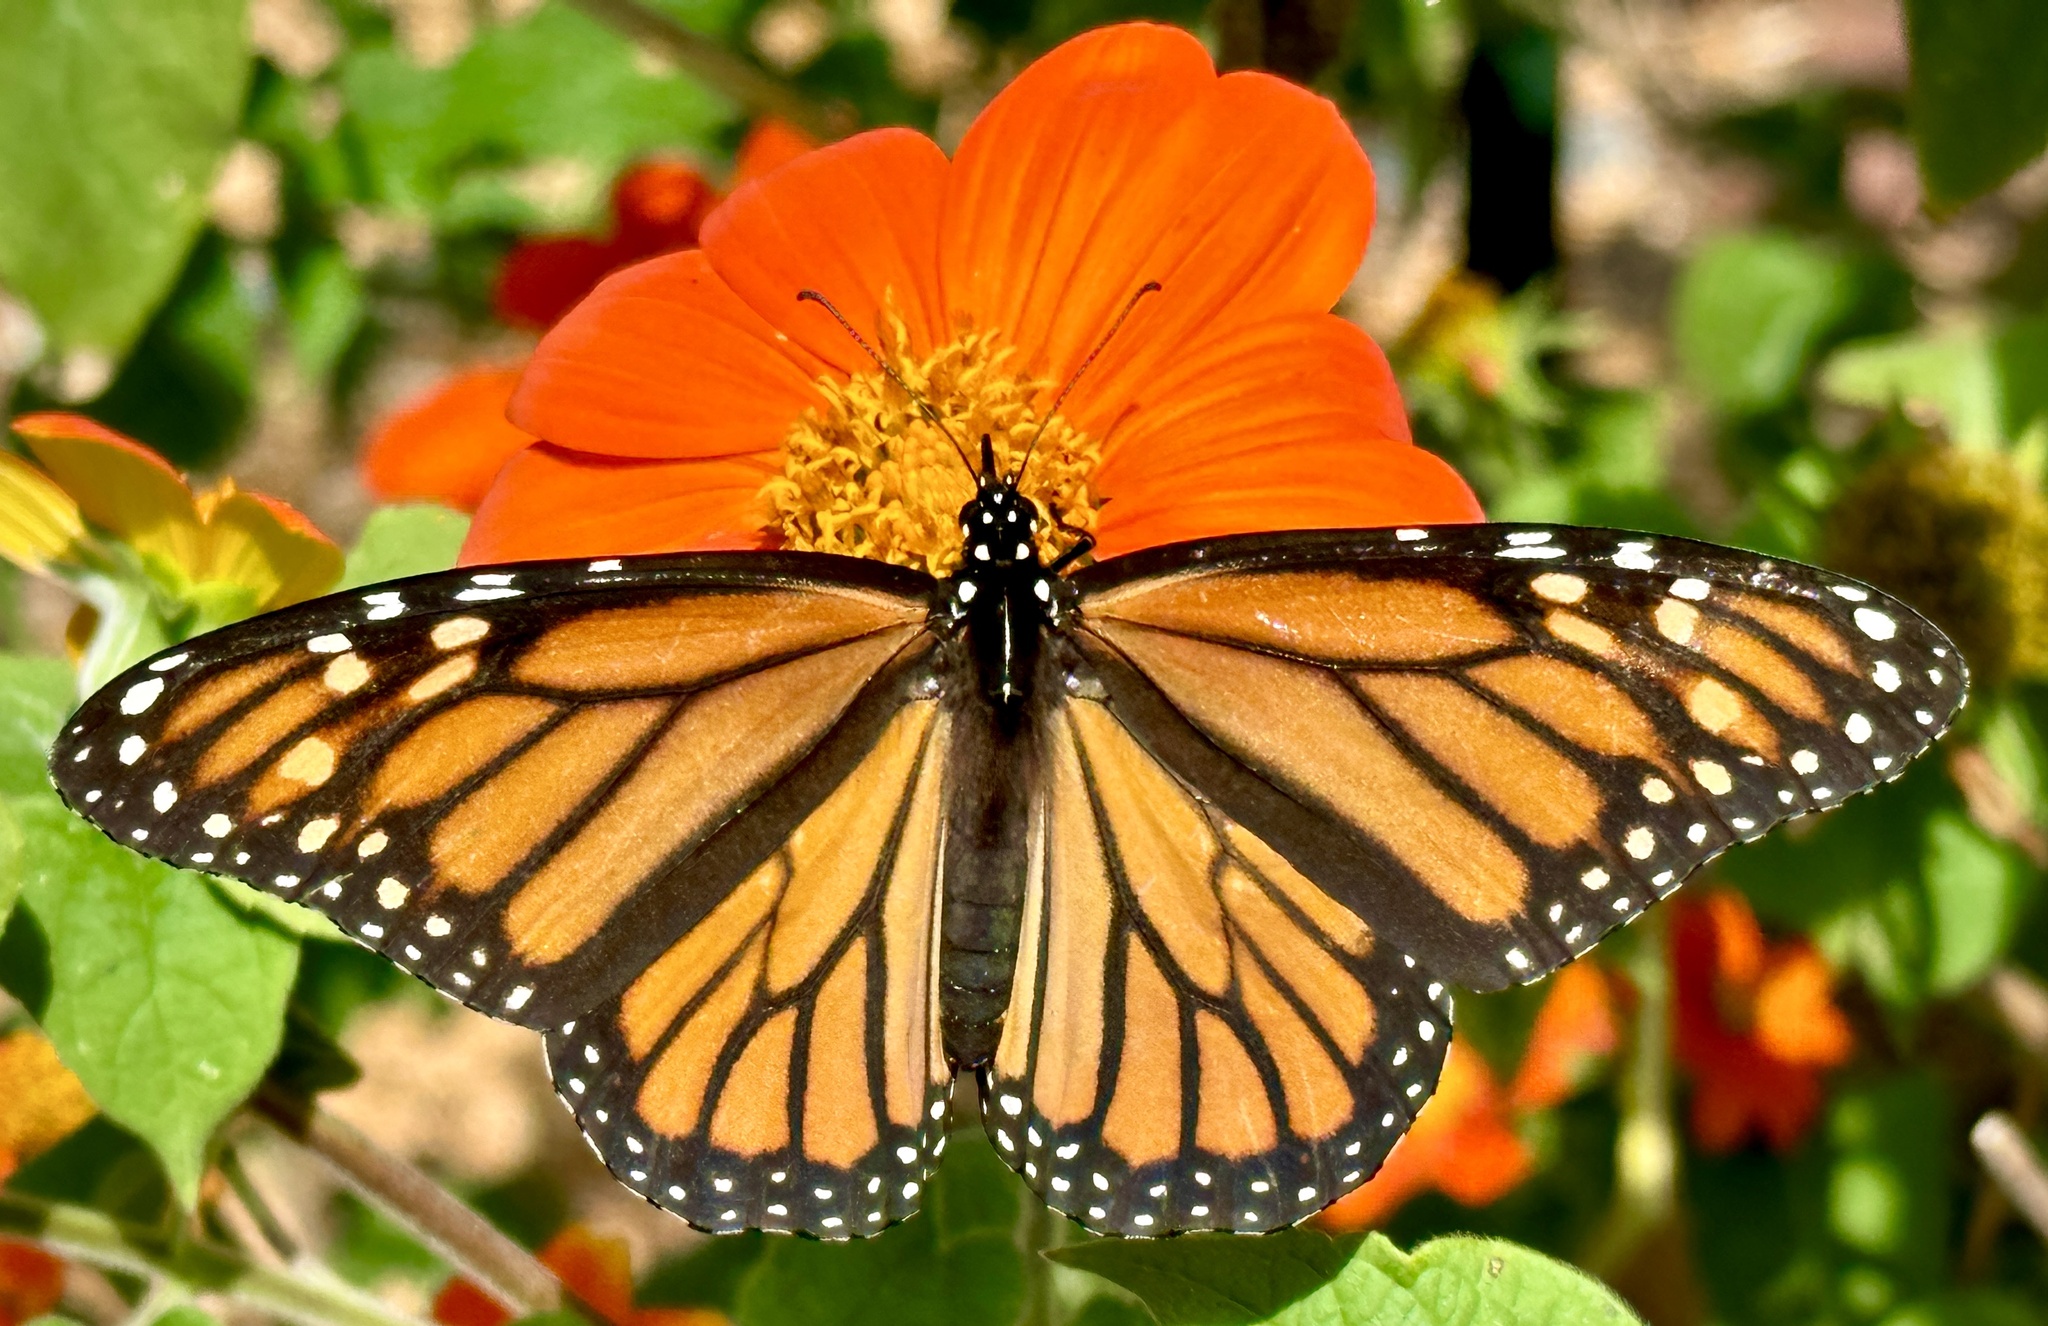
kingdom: Animalia
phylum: Arthropoda
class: Insecta
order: Lepidoptera
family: Nymphalidae
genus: Danaus
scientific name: Danaus plexippus
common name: Monarch
